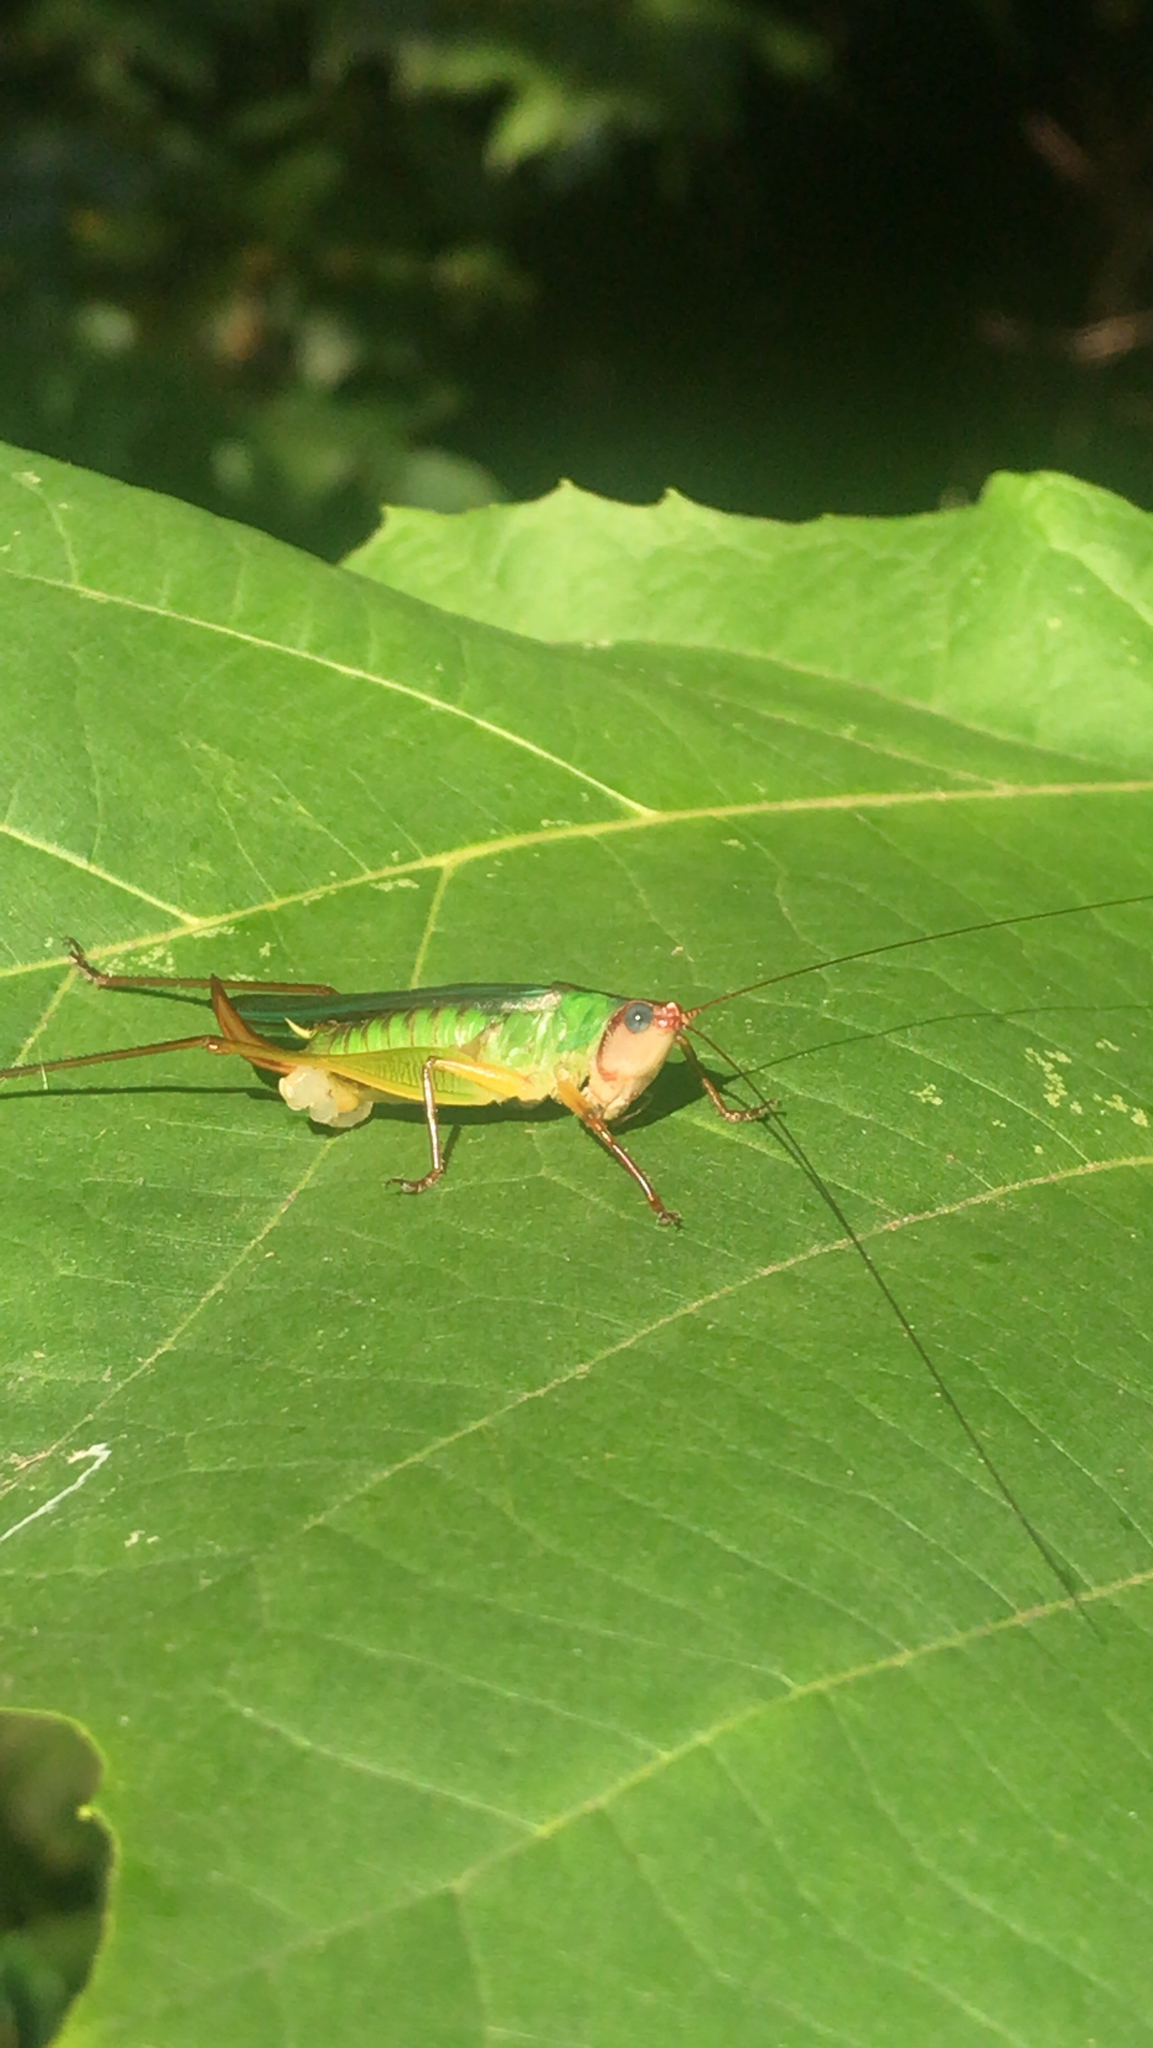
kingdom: Animalia
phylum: Arthropoda
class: Insecta
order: Orthoptera
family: Tettigoniidae
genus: Orchelimum
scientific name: Orchelimum pulchellum
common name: Handsome meadow katydid
